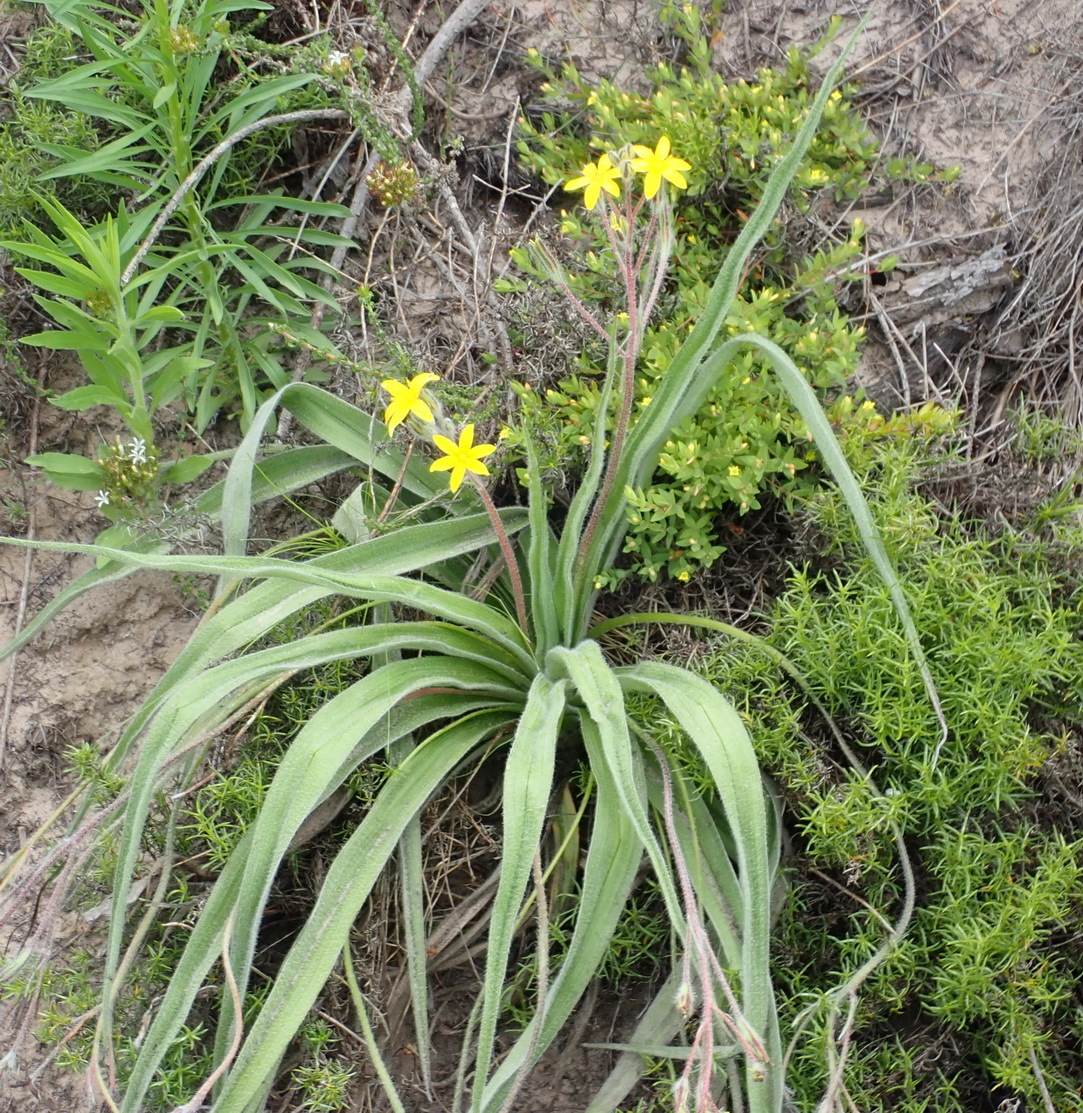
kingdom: Plantae
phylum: Tracheophyta
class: Liliopsida
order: Asparagales
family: Hypoxidaceae
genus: Hypoxis
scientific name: Hypoxis villosa
